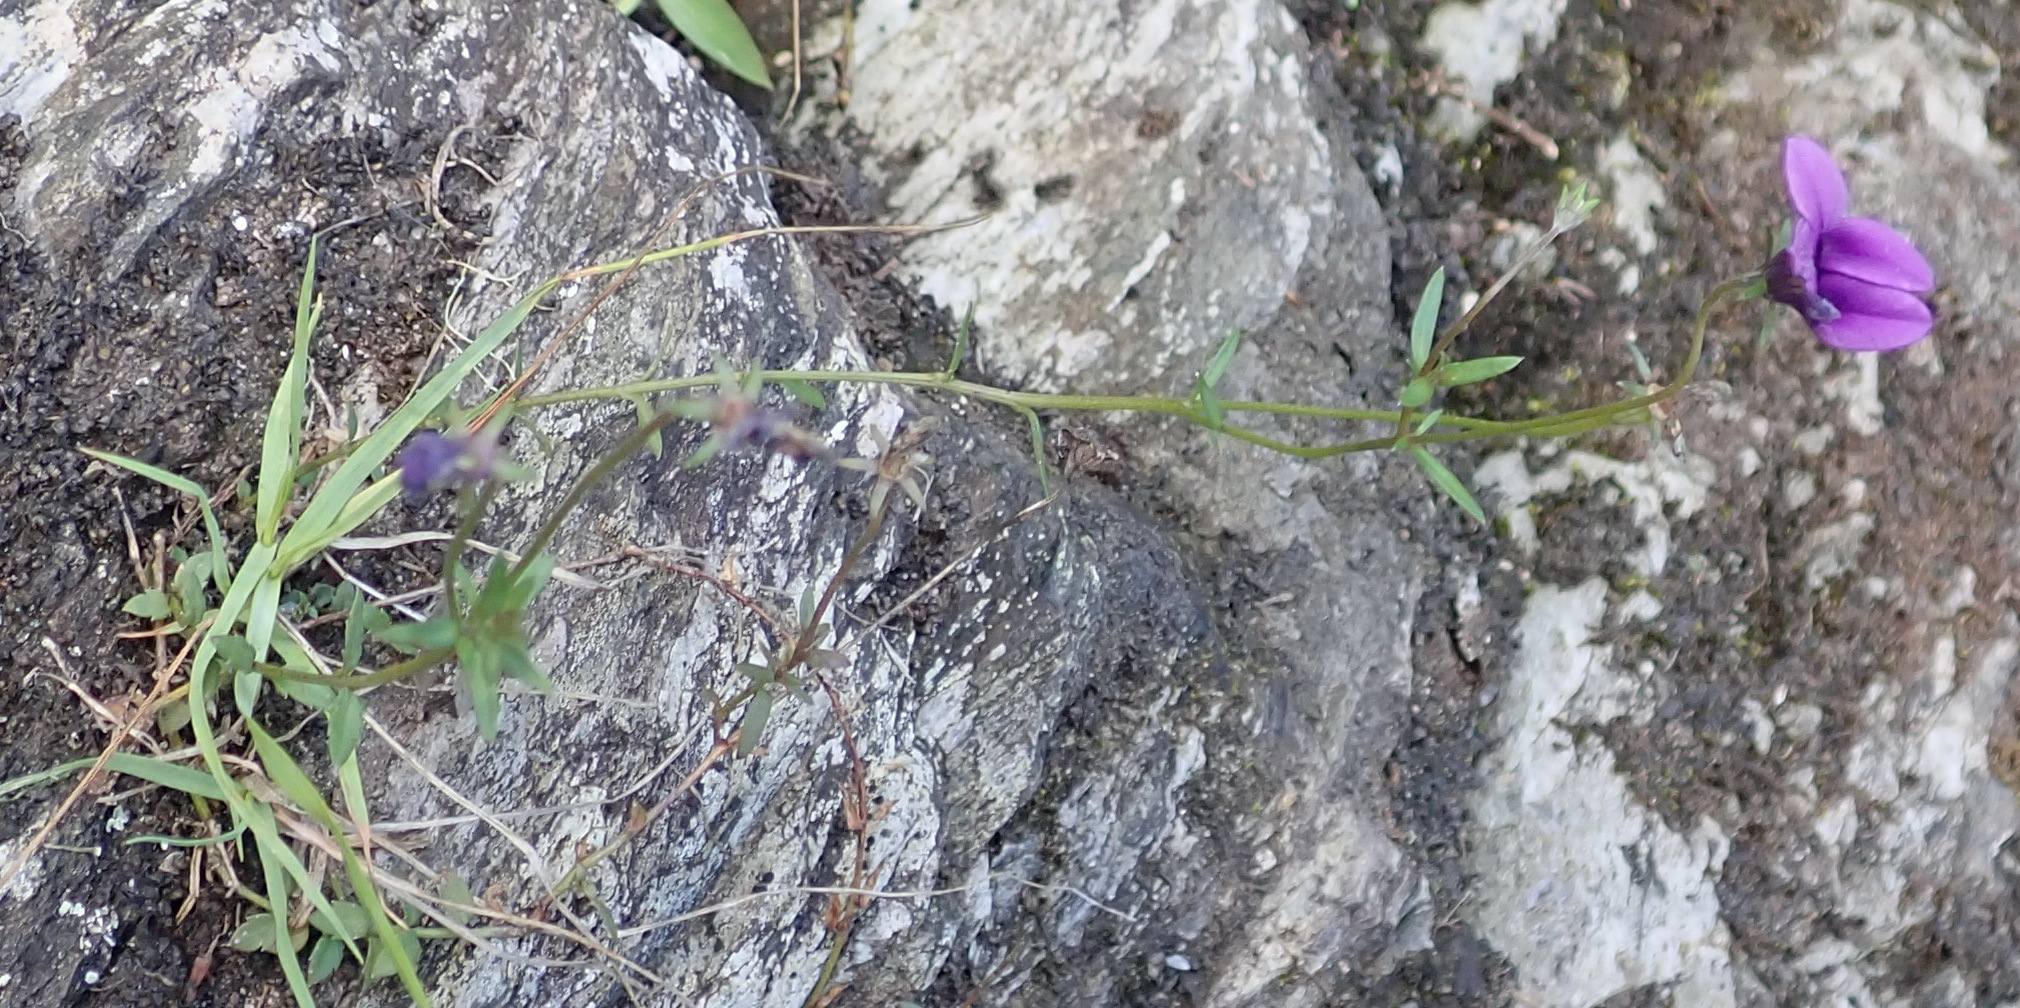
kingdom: Plantae
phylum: Tracheophyta
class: Magnoliopsida
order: Asterales
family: Campanulaceae
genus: Monopsis
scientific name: Monopsis simplex
